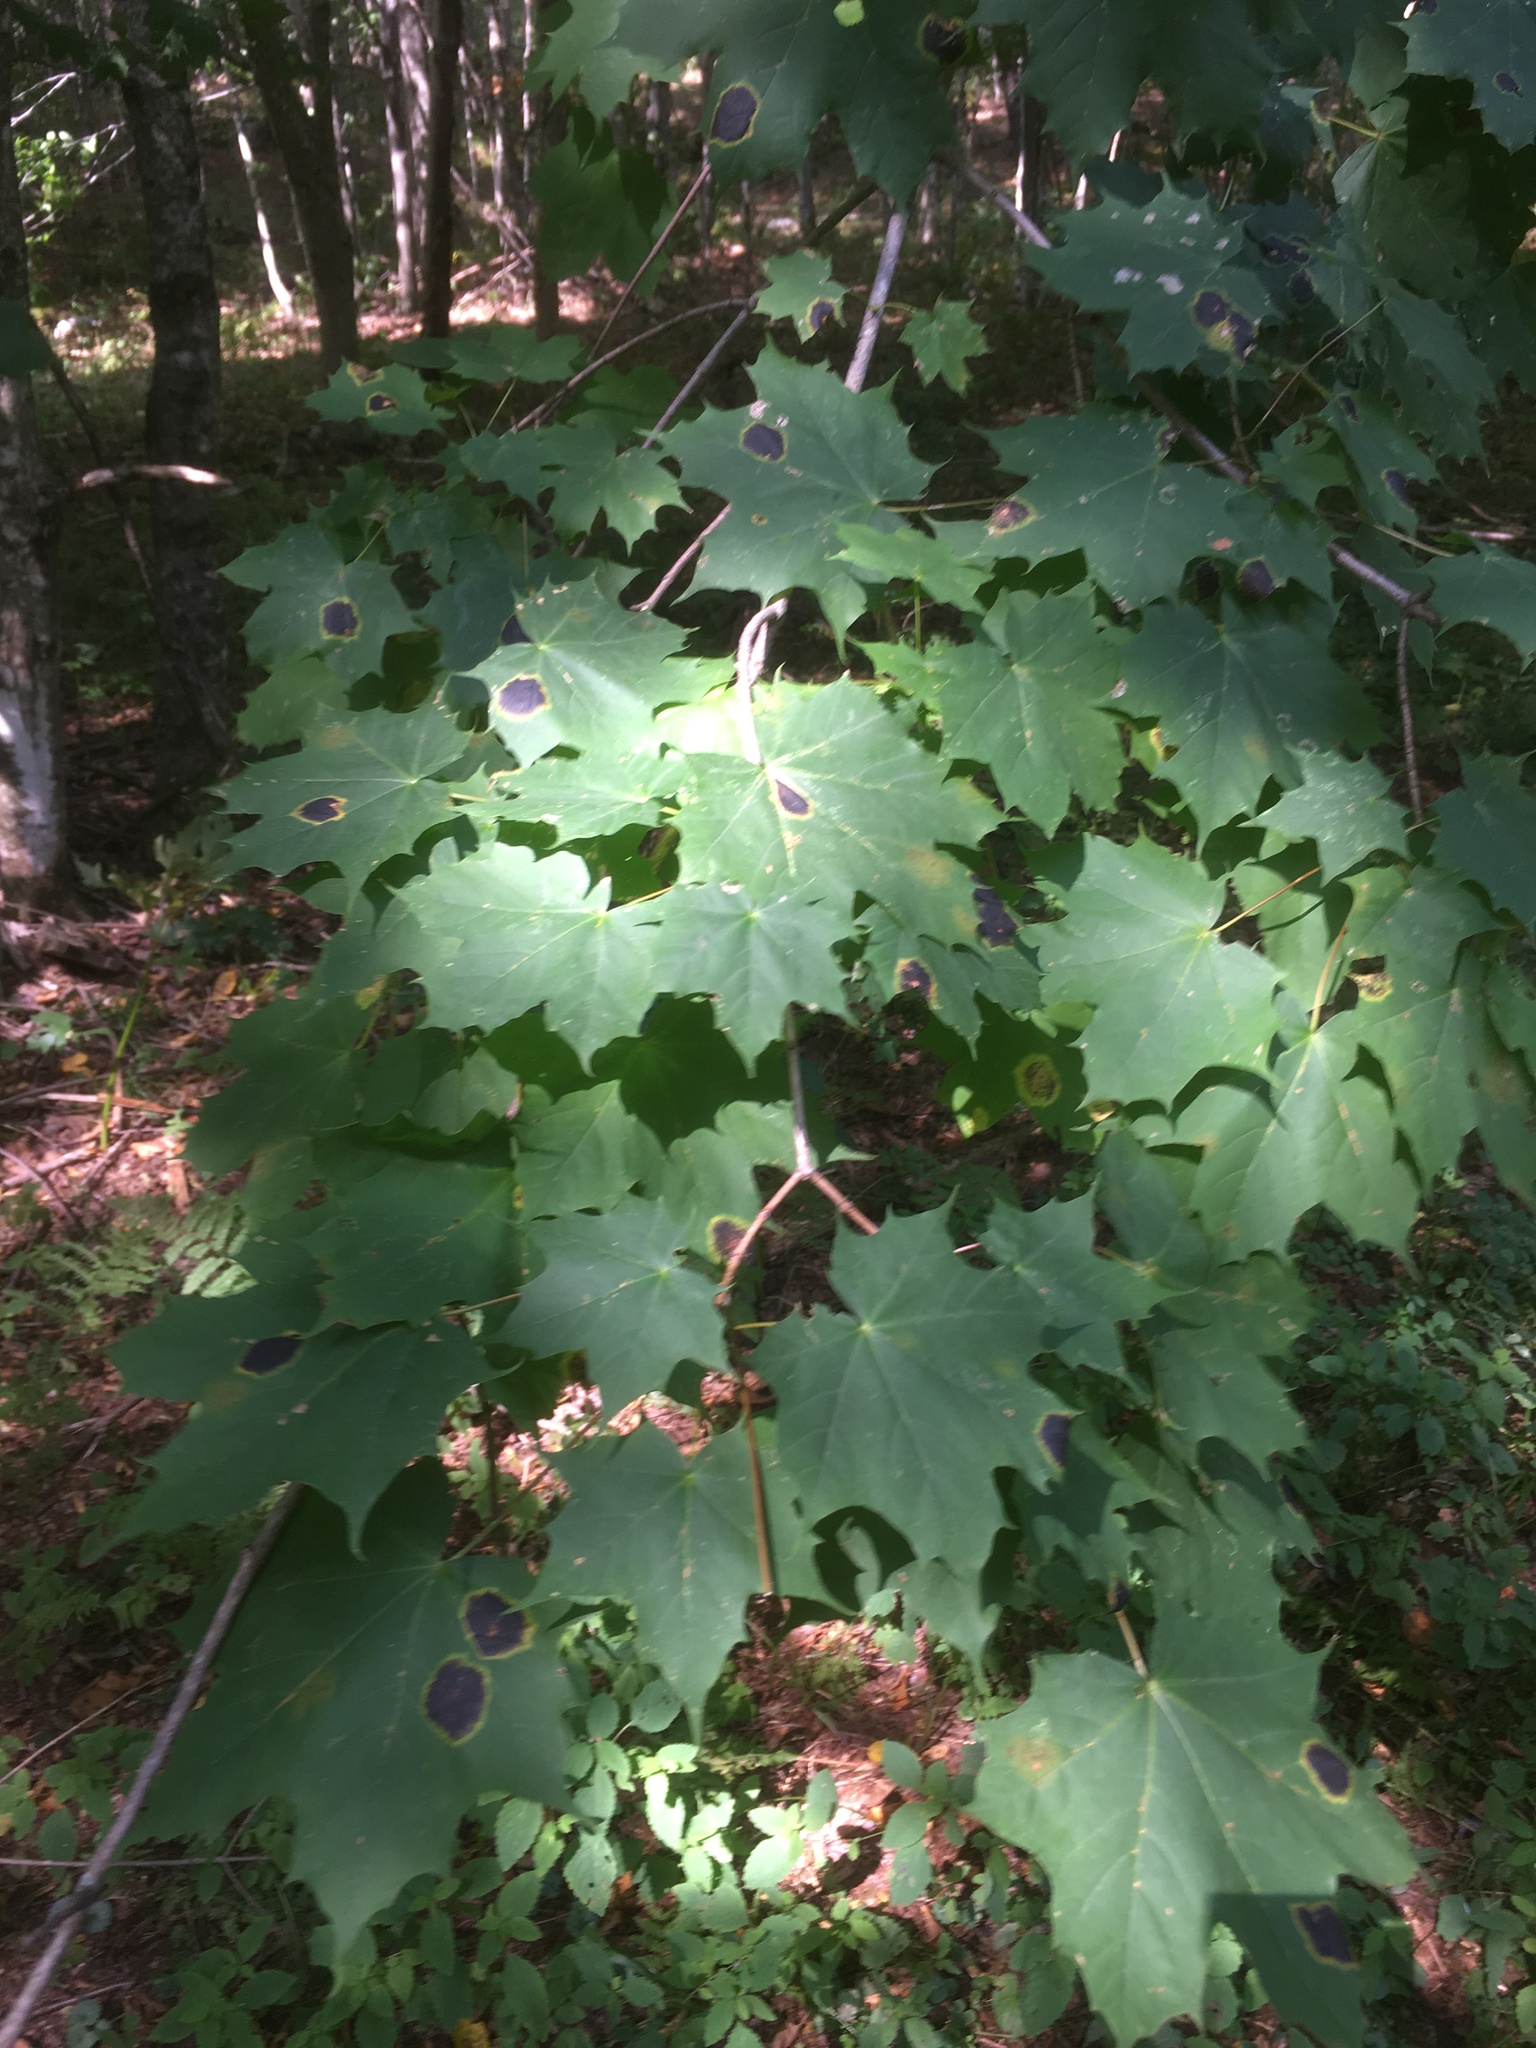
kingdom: Plantae
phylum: Tracheophyta
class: Magnoliopsida
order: Sapindales
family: Sapindaceae
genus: Acer
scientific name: Acer platanoides
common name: Norway maple
